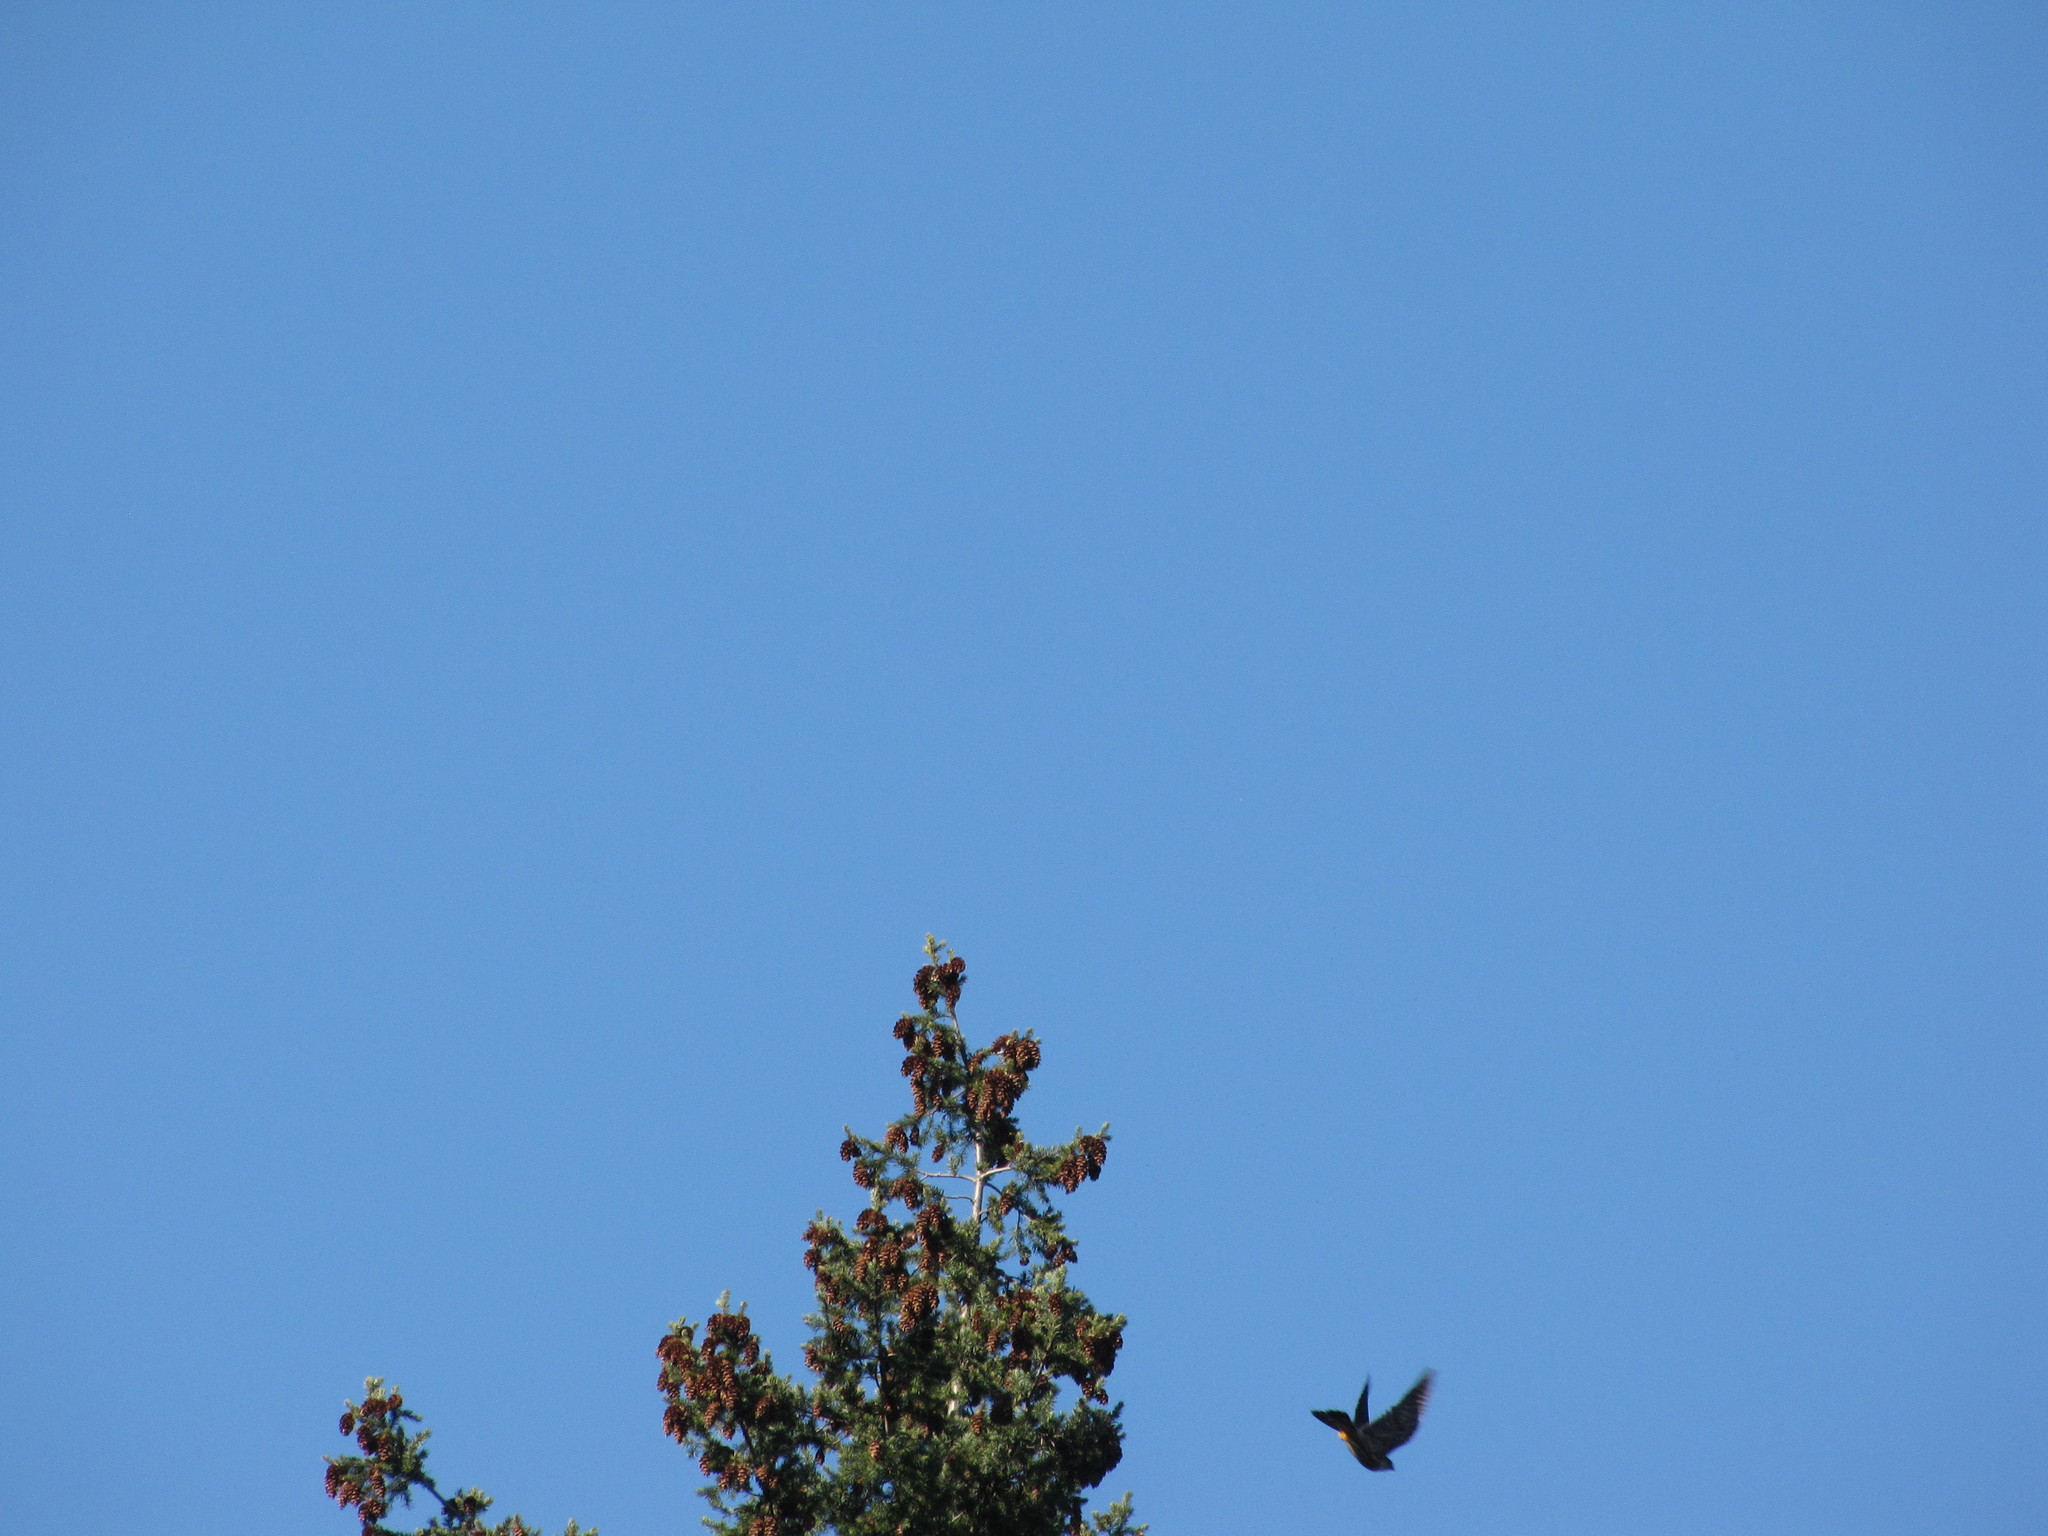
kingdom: Animalia
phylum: Chordata
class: Aves
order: Falconiformes
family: Falconidae
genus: Falco
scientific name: Falco columbarius
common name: Merlin
